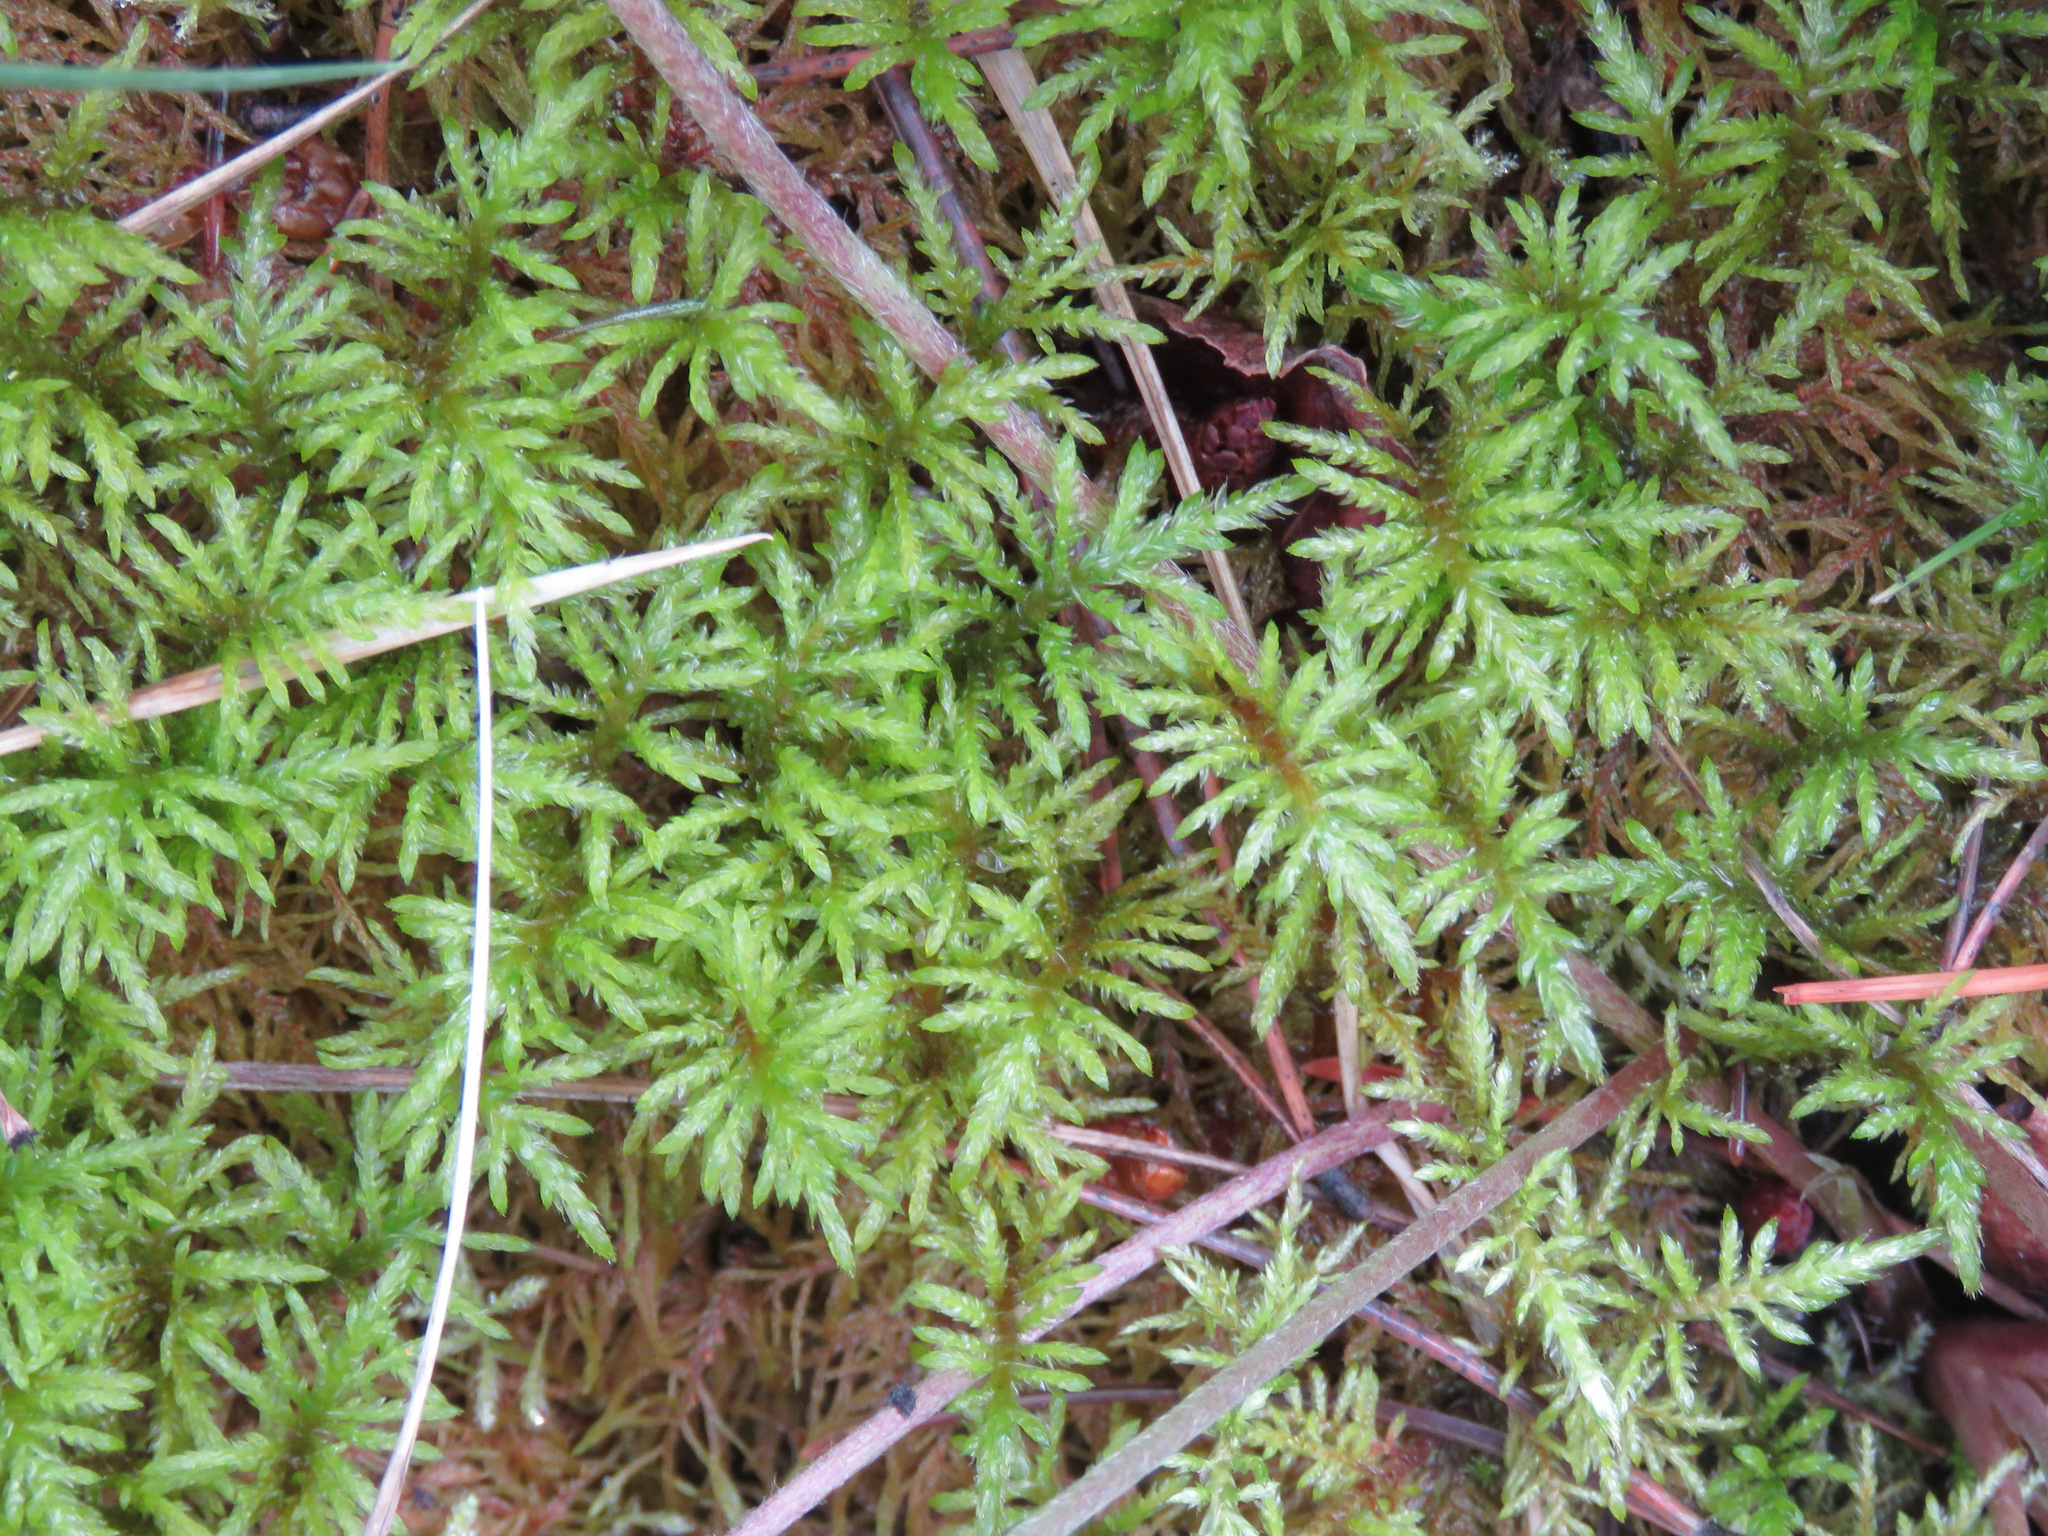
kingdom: Plantae
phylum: Bryophyta
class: Bryopsida
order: Hypnales
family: Hylocomiaceae
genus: Hylocomium
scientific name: Hylocomium splendens
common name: Stairstep moss
